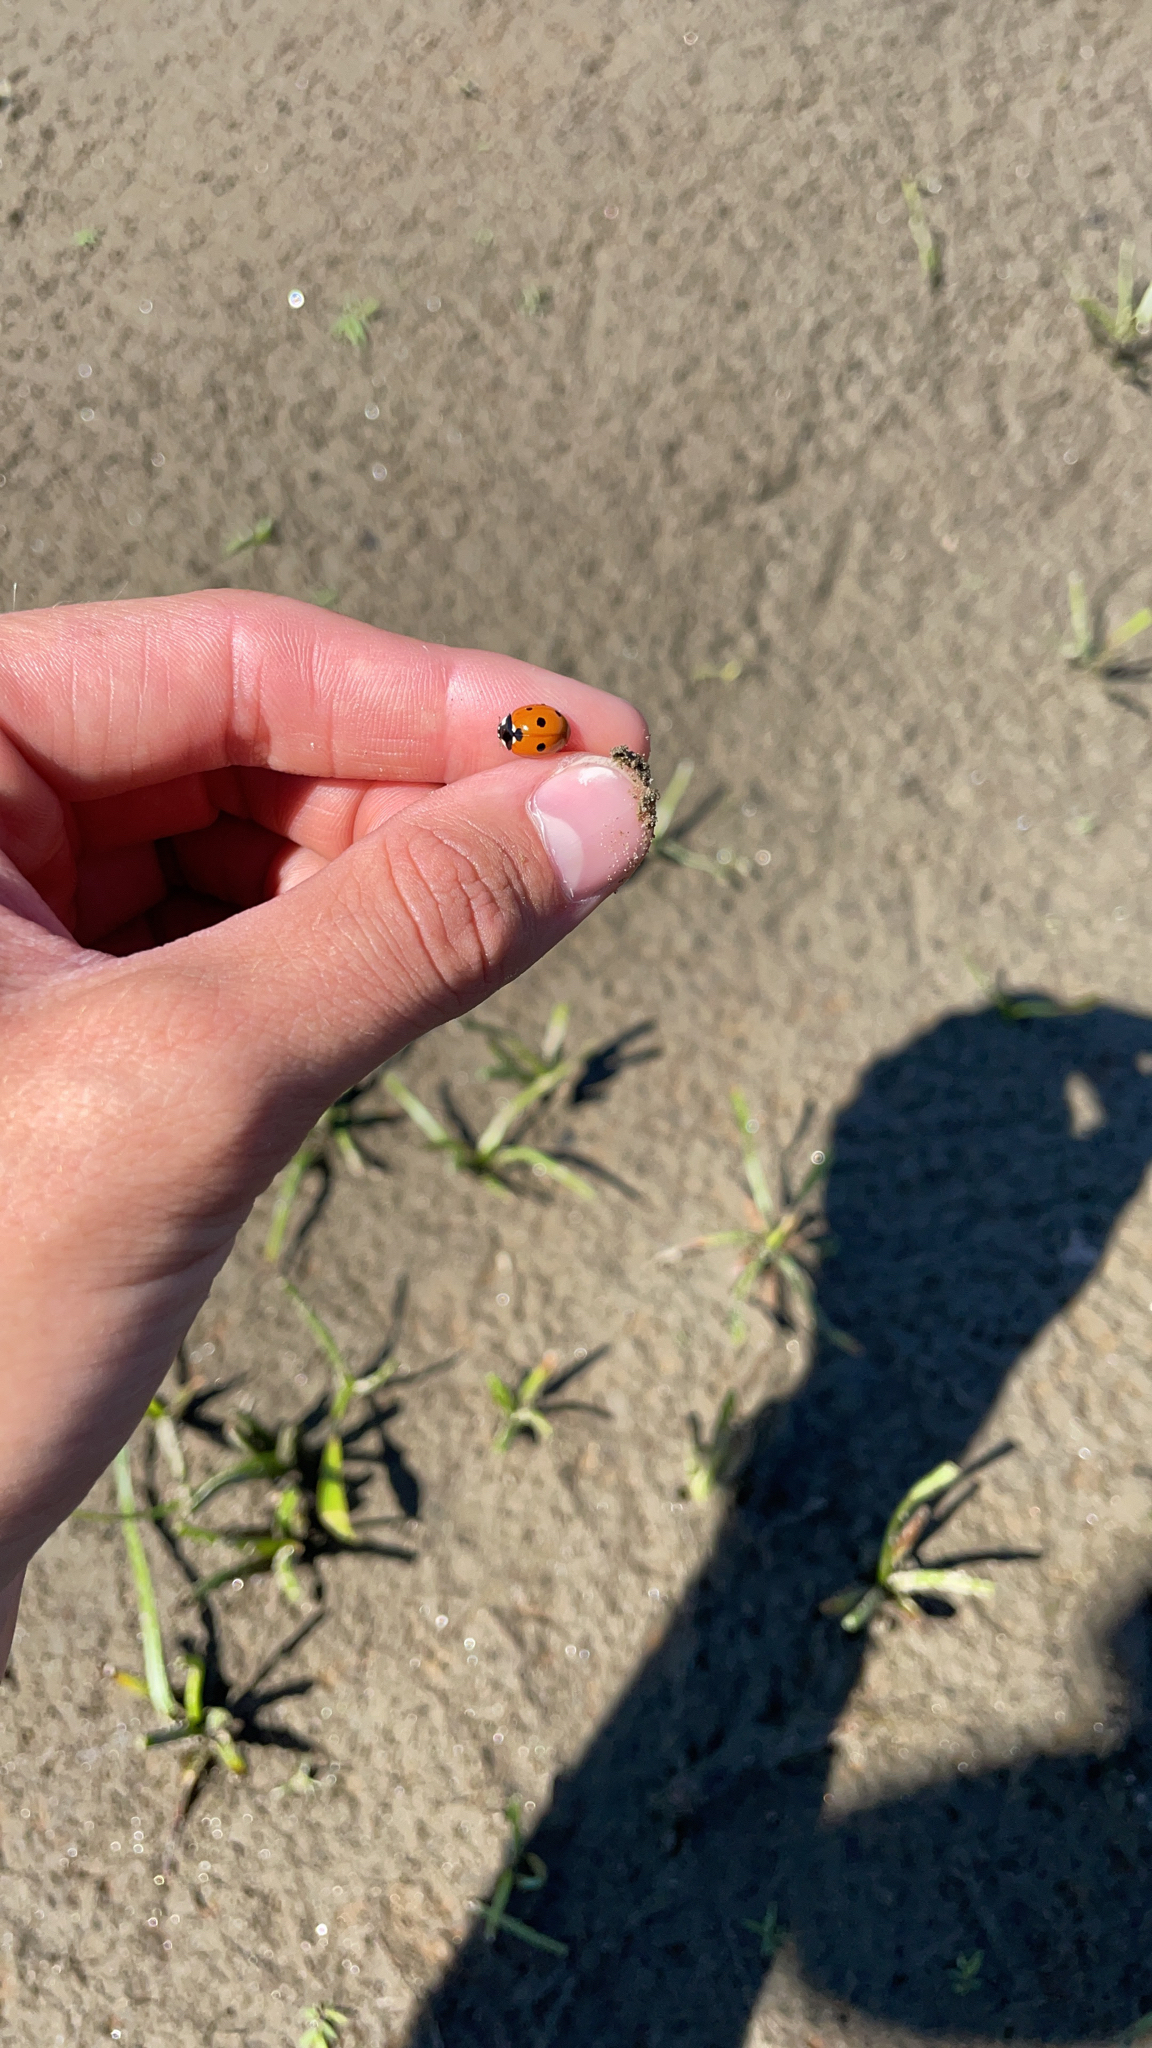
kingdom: Animalia
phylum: Arthropoda
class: Insecta
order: Coleoptera
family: Coccinellidae
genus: Coccinella
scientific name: Coccinella septempunctata
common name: Sevenspotted lady beetle
